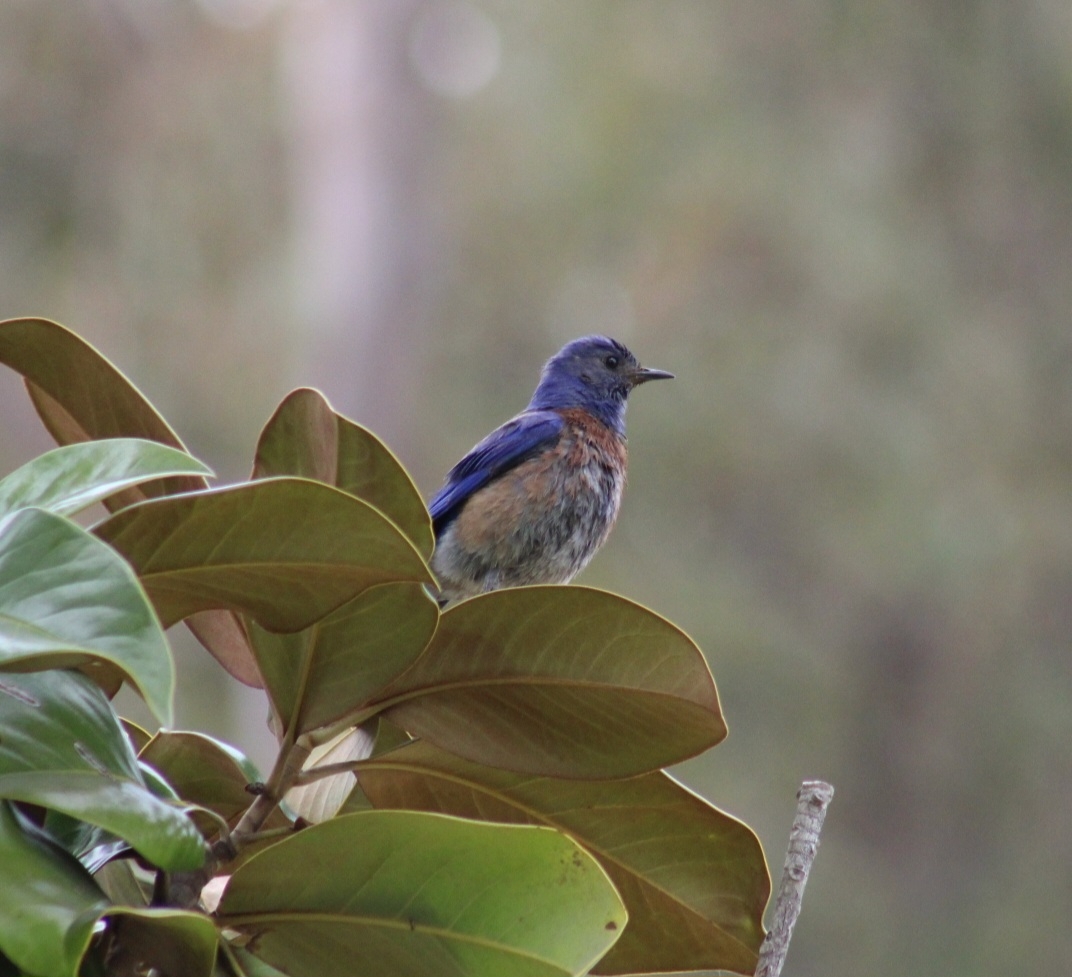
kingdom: Animalia
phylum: Chordata
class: Aves
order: Passeriformes
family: Turdidae
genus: Sialia
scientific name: Sialia mexicana
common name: Western bluebird
